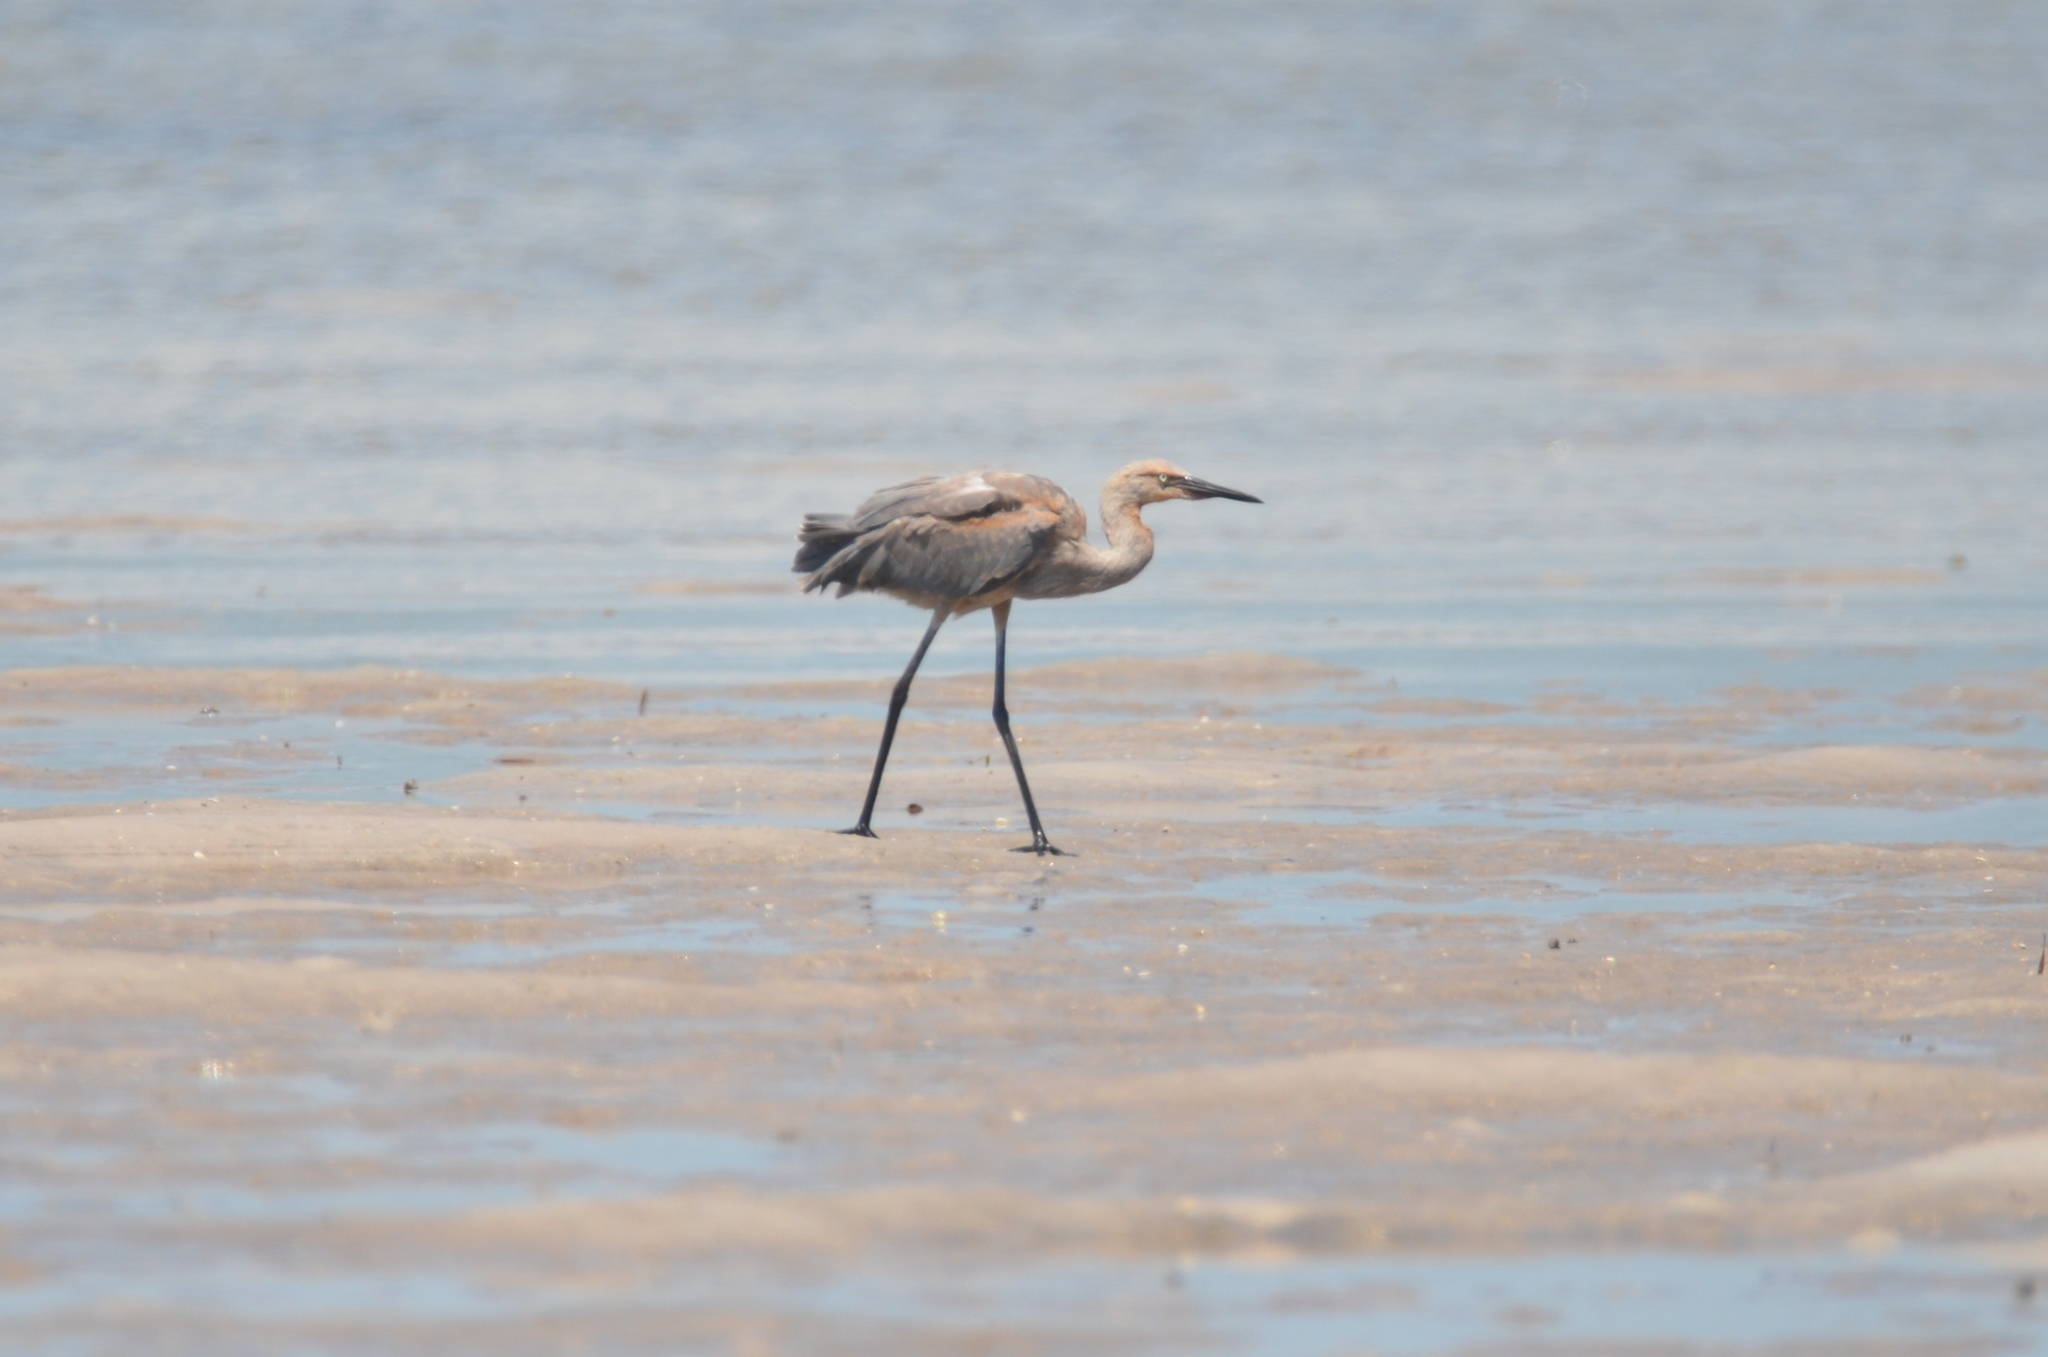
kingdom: Animalia
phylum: Chordata
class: Aves
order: Pelecaniformes
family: Ardeidae
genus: Egretta
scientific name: Egretta rufescens
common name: Reddish egret
